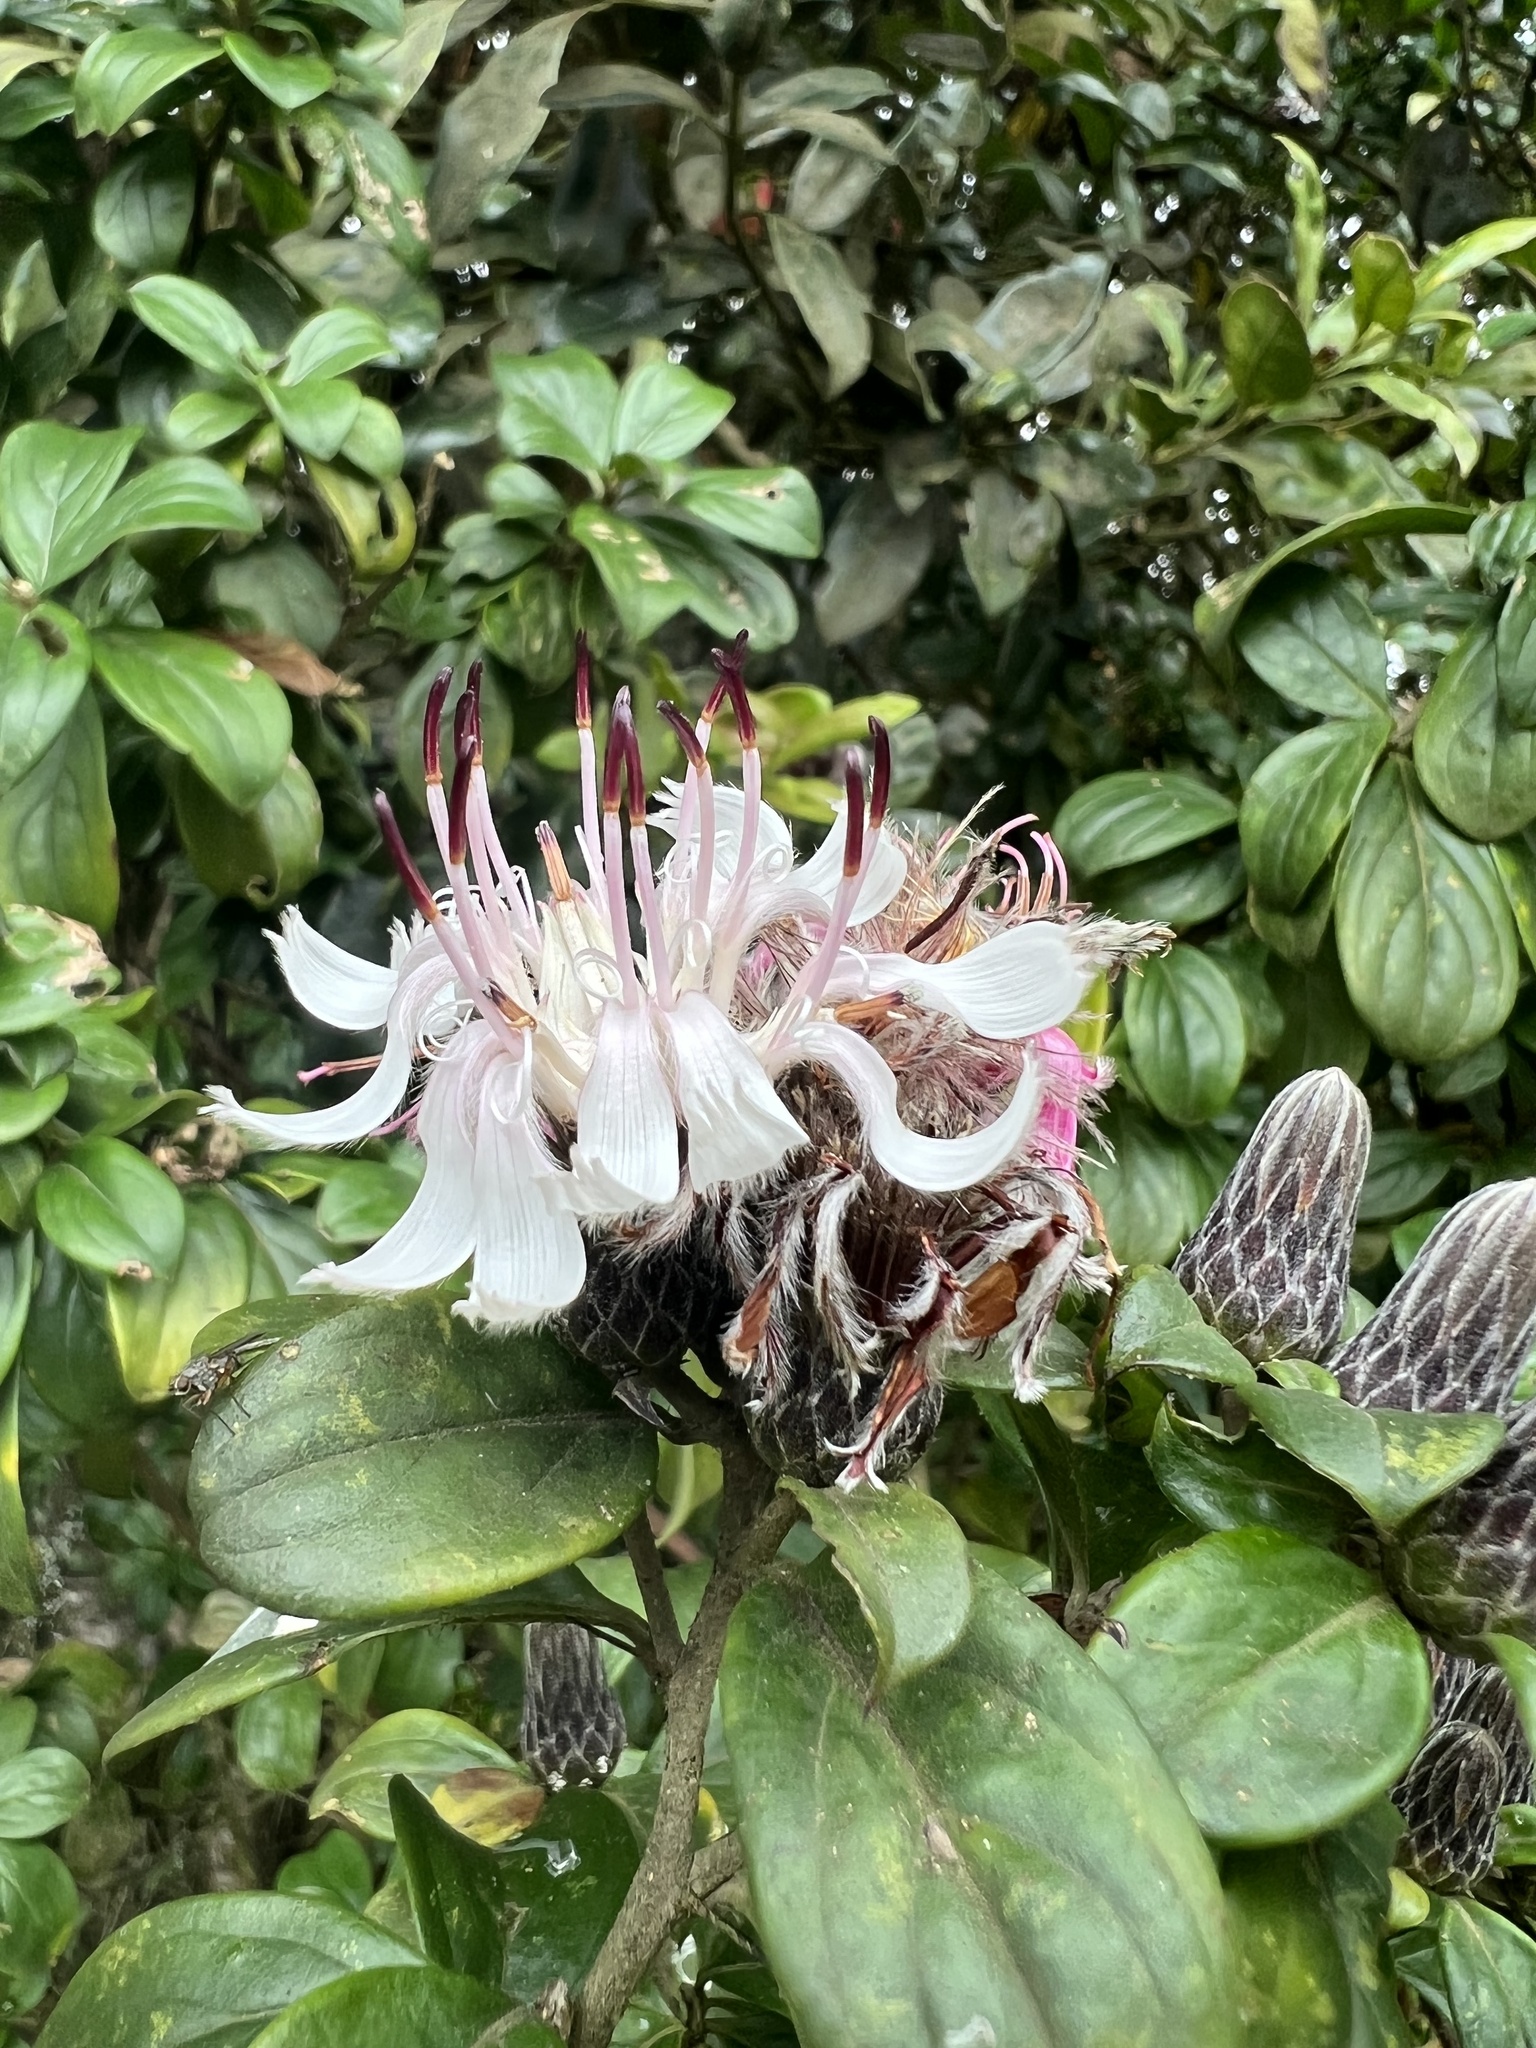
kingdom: Plantae
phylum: Tracheophyta
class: Magnoliopsida
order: Asterales
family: Asteraceae
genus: Barnadesia
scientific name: Barnadesia spinosa
